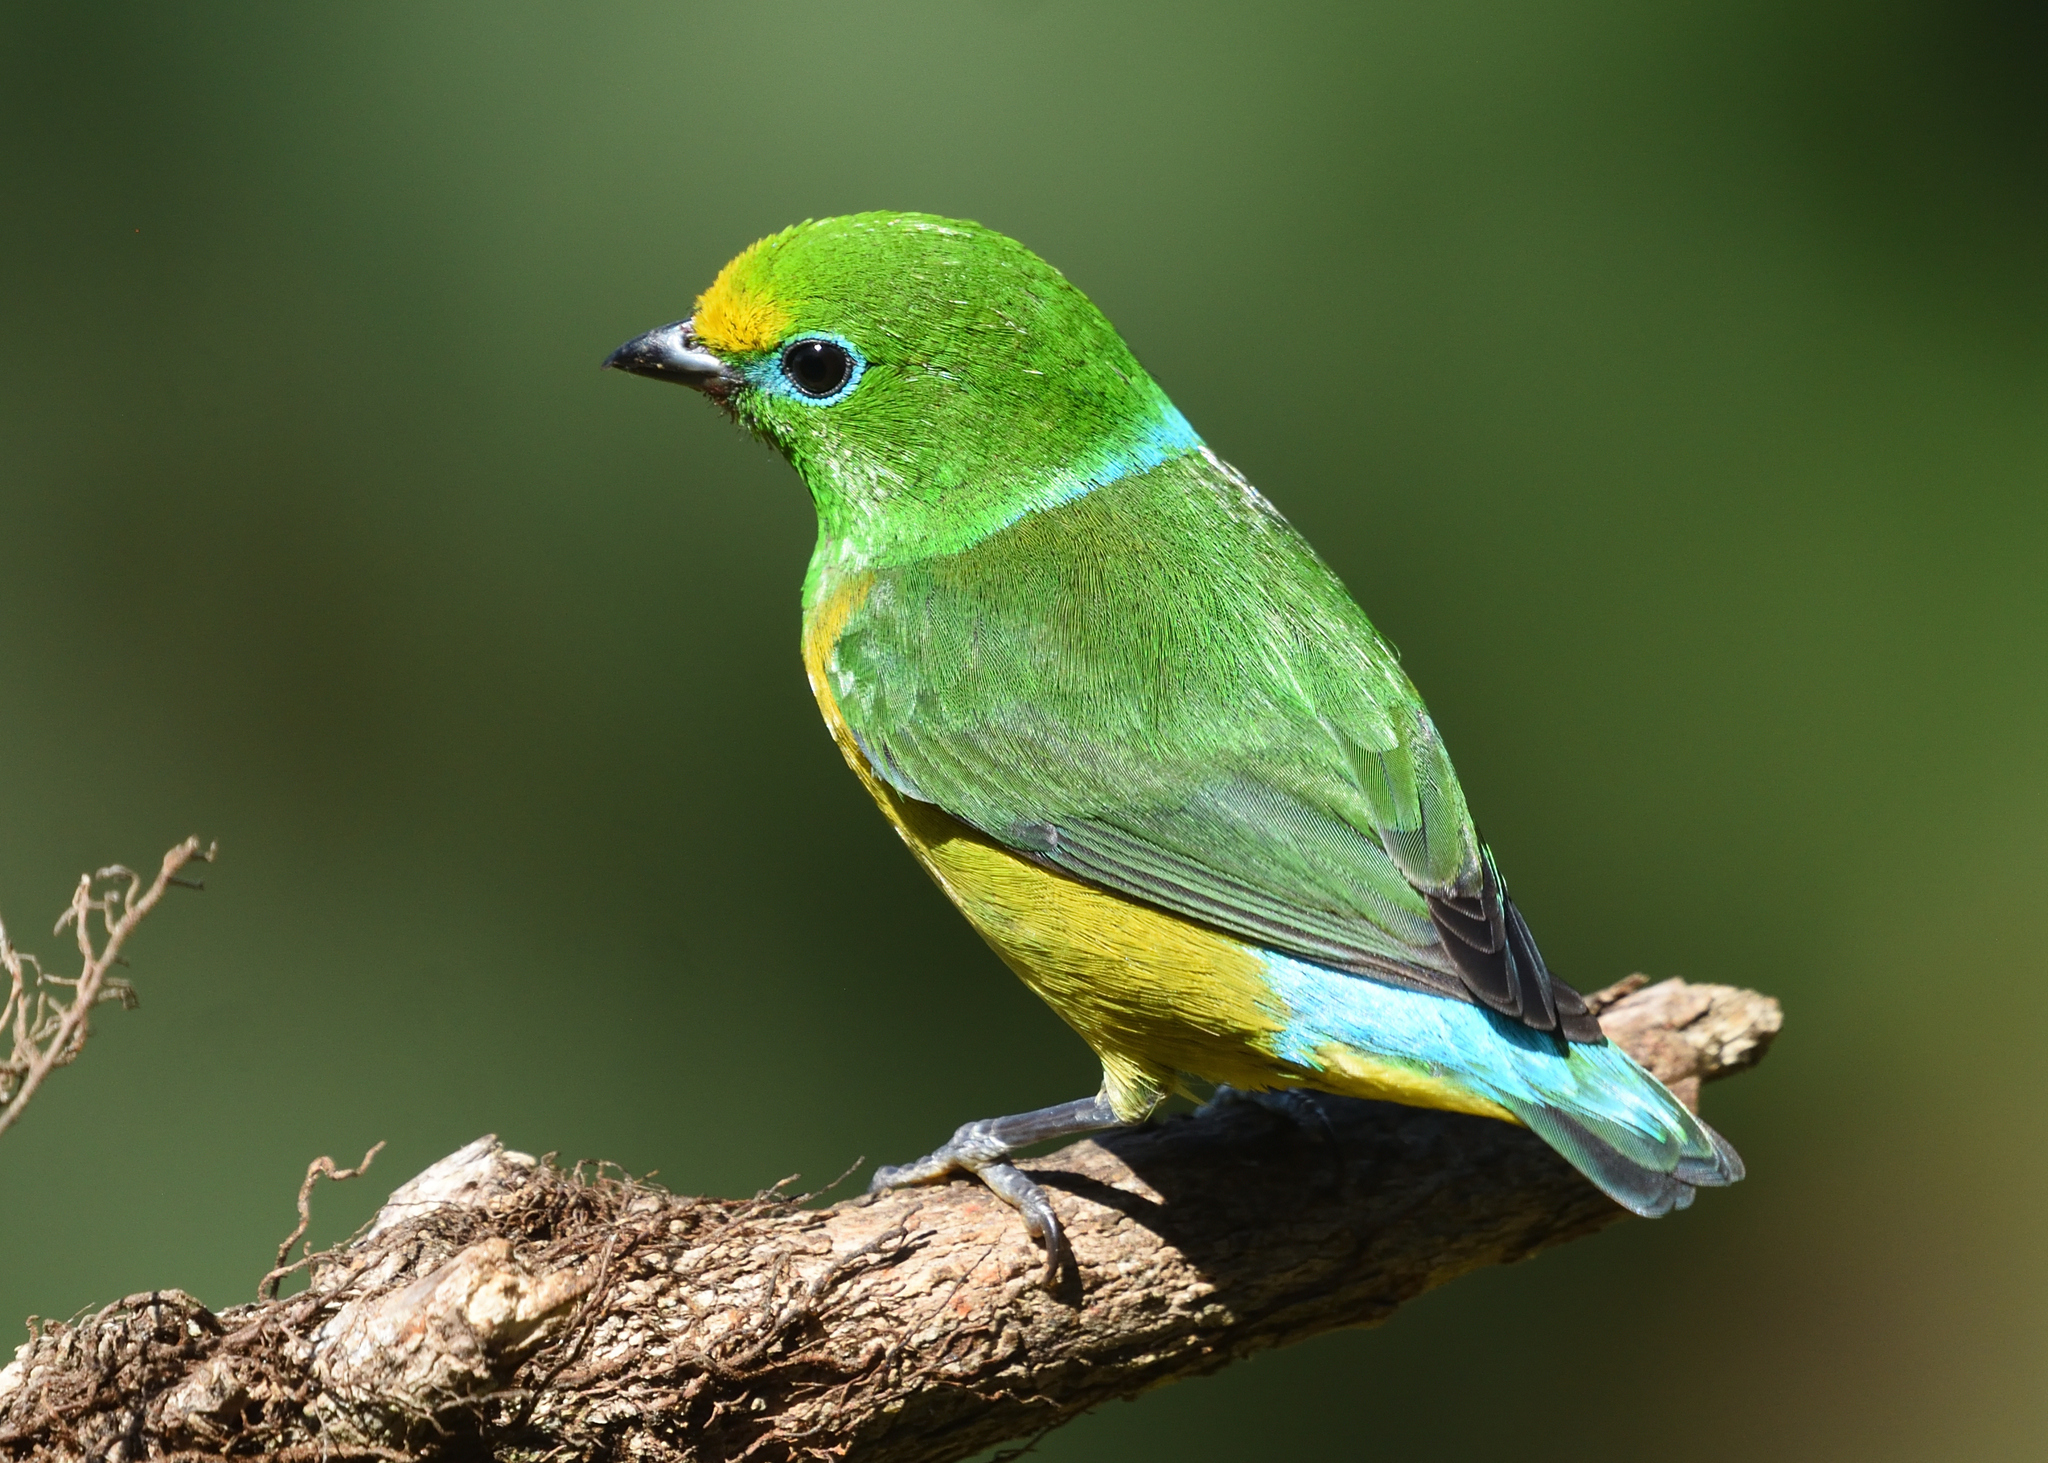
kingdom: Animalia
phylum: Chordata
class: Aves
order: Passeriformes
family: Fringillidae
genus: Chlorophonia
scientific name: Chlorophonia cyanea
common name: Blue-naped chlorophonia
